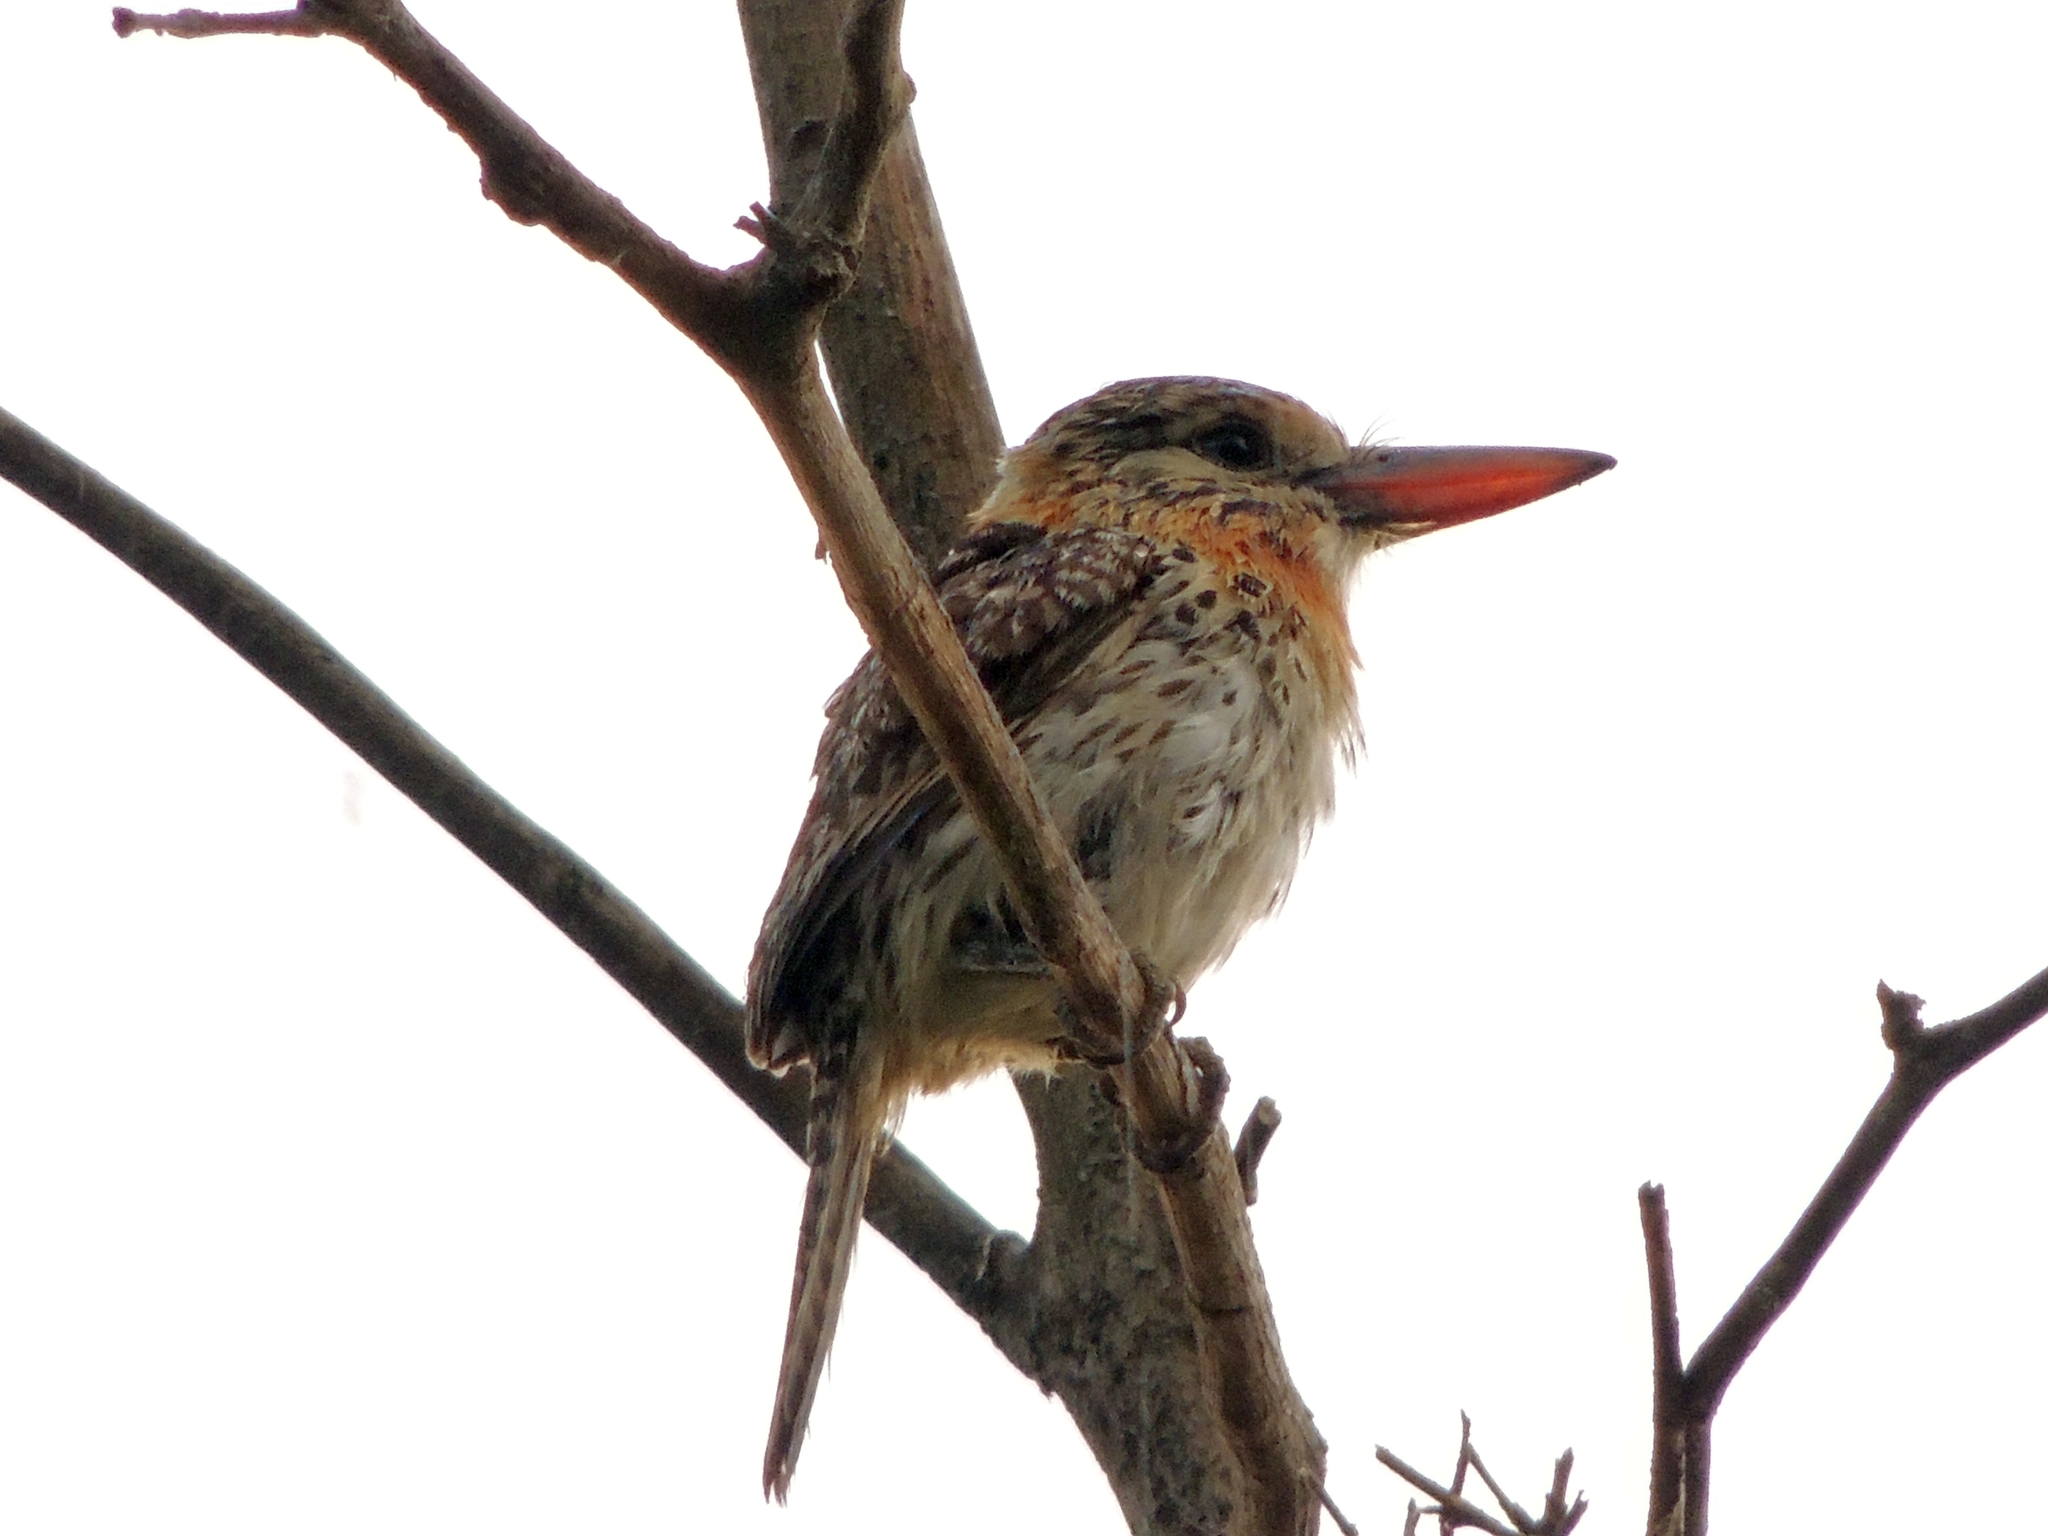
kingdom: Animalia
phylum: Chordata
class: Aves
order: Piciformes
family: Bucconidae
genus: Nystalus
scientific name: Nystalus maculatus
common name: Caatinga puffbird
